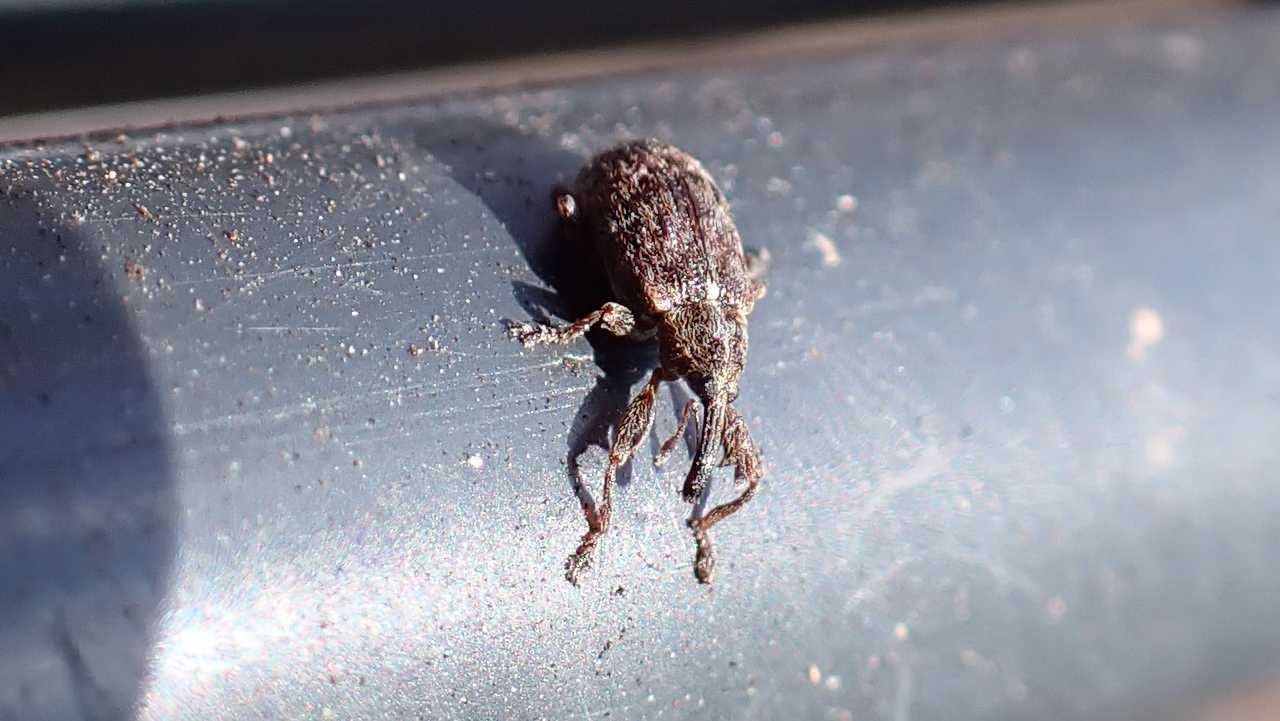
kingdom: Animalia
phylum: Arthropoda
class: Insecta
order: Coleoptera
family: Curculionidae
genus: Anthonomus
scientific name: Anthonomus pomorum
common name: Apple-blossom weevil
